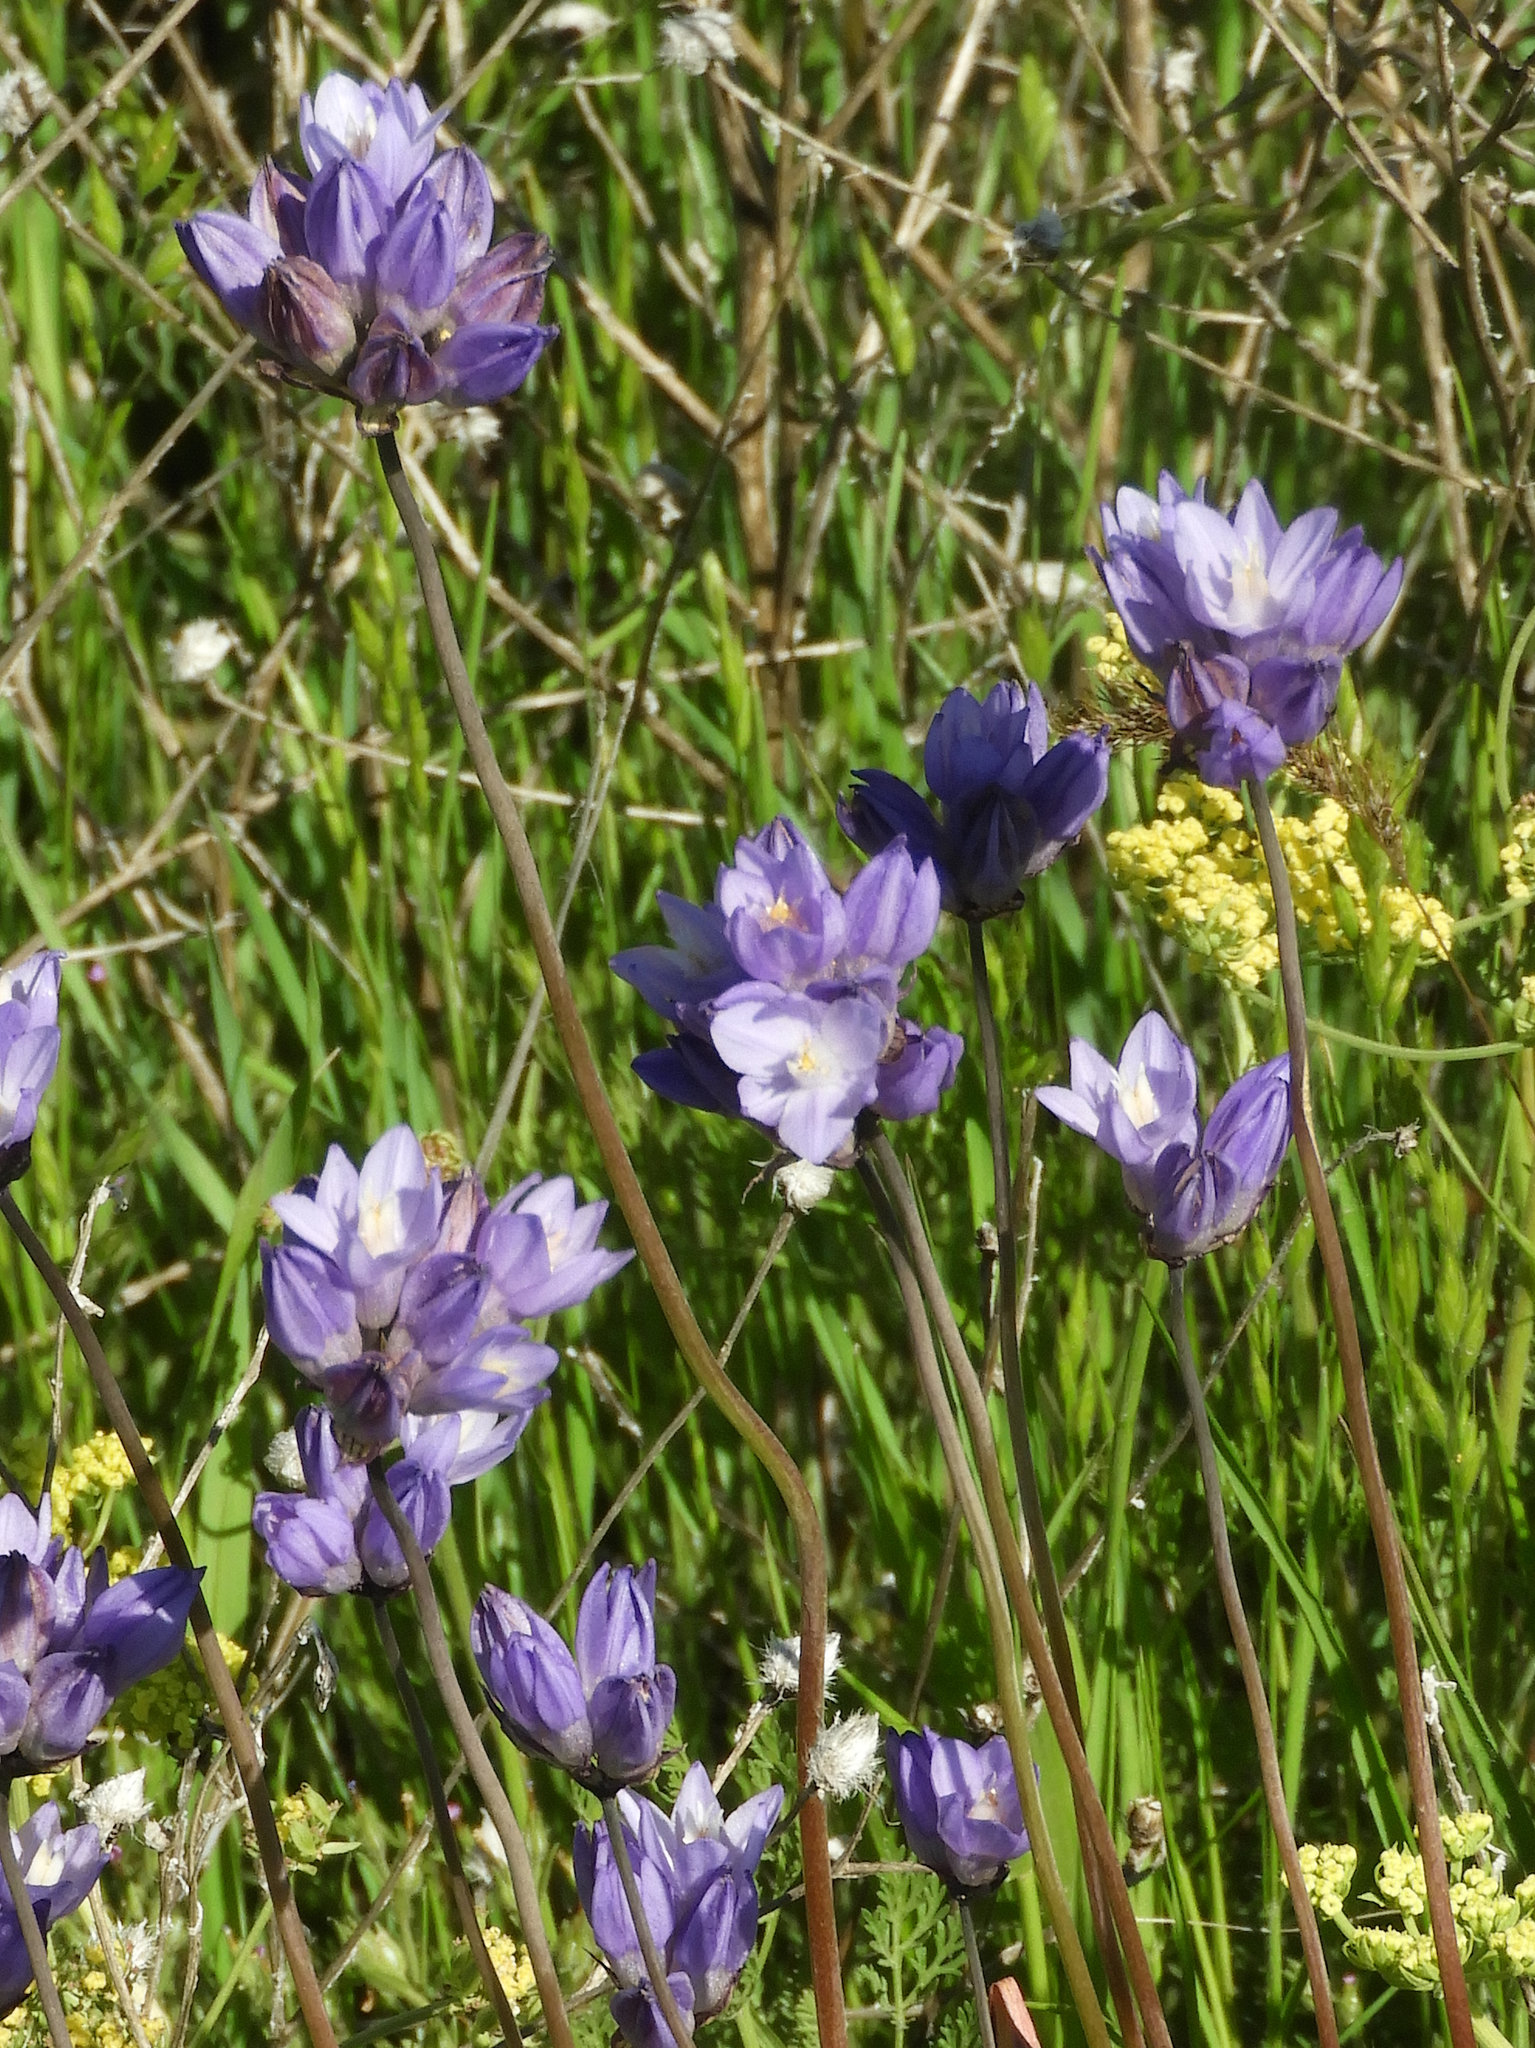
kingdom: Plantae
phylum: Tracheophyta
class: Liliopsida
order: Asparagales
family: Asparagaceae
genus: Dipterostemon
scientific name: Dipterostemon capitatus
